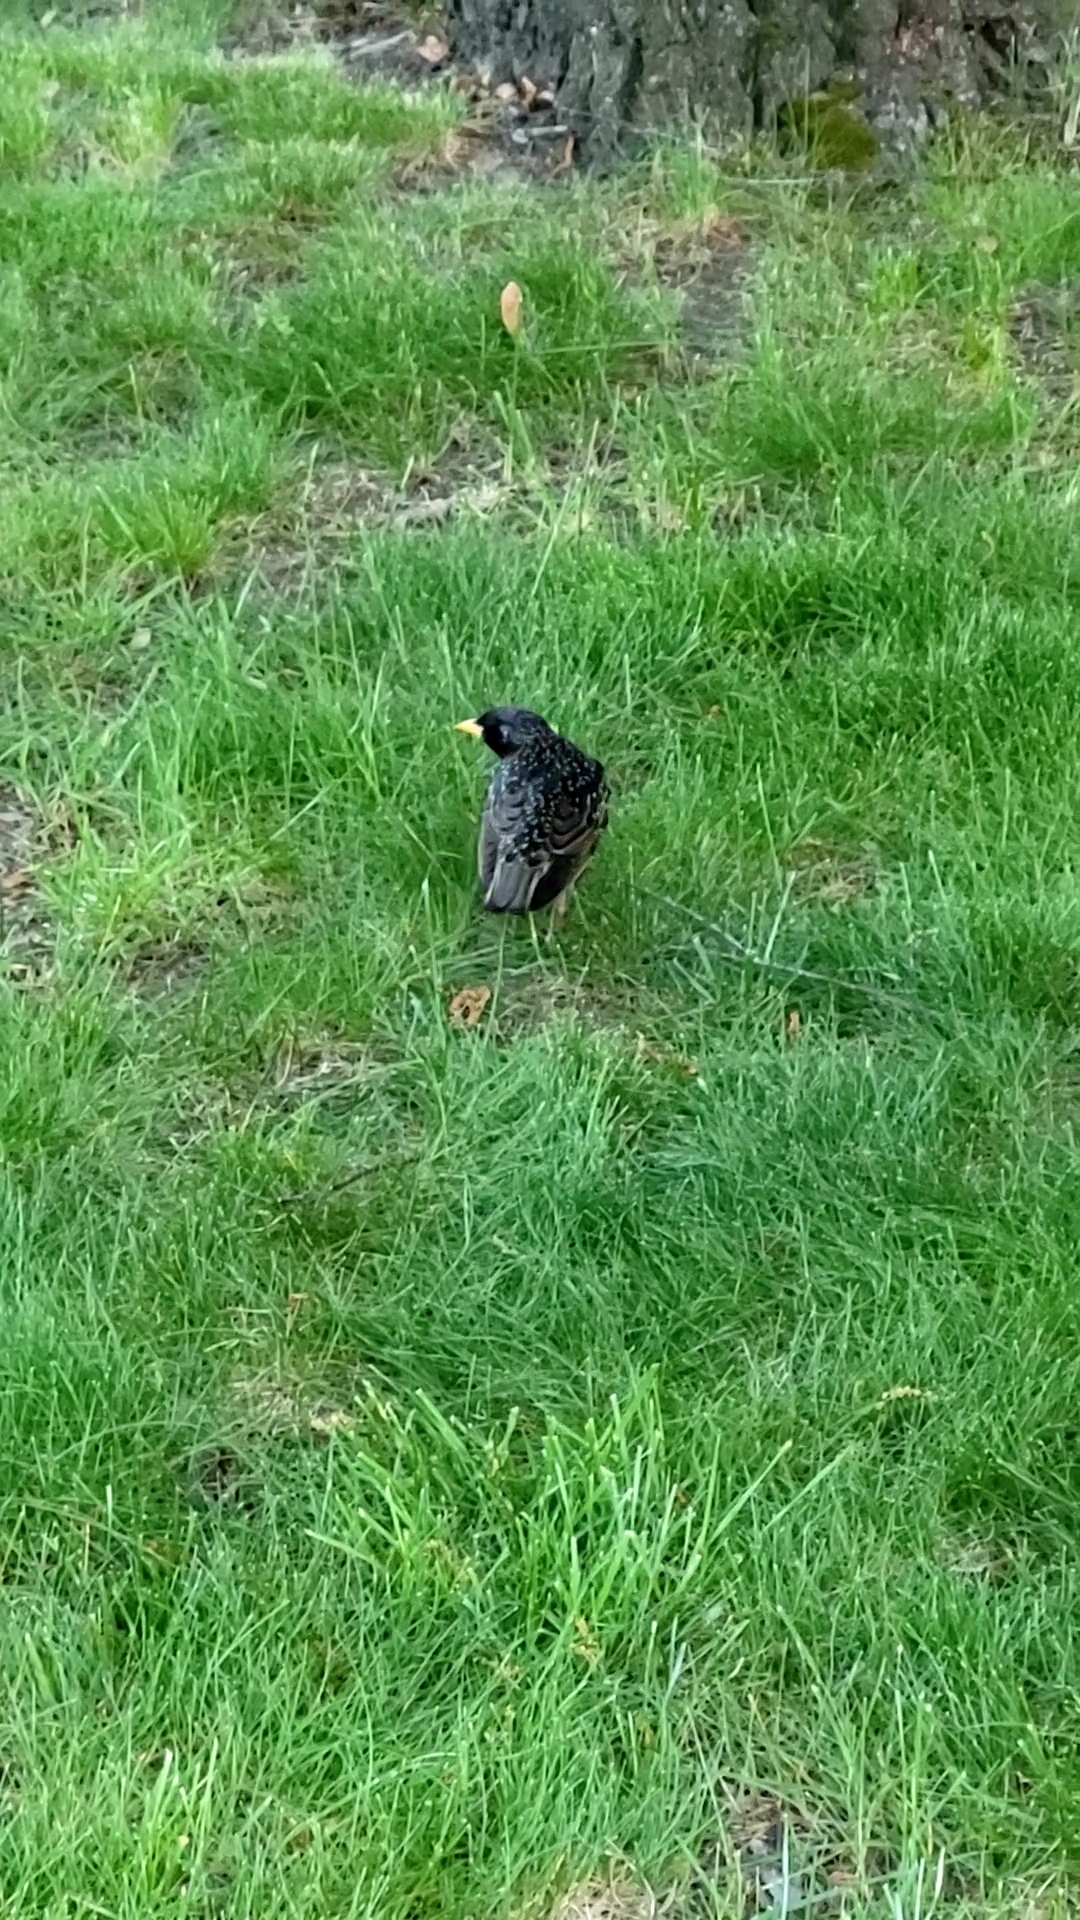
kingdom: Animalia
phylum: Chordata
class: Aves
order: Passeriformes
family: Sturnidae
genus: Sturnus
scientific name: Sturnus vulgaris
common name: Common starling
